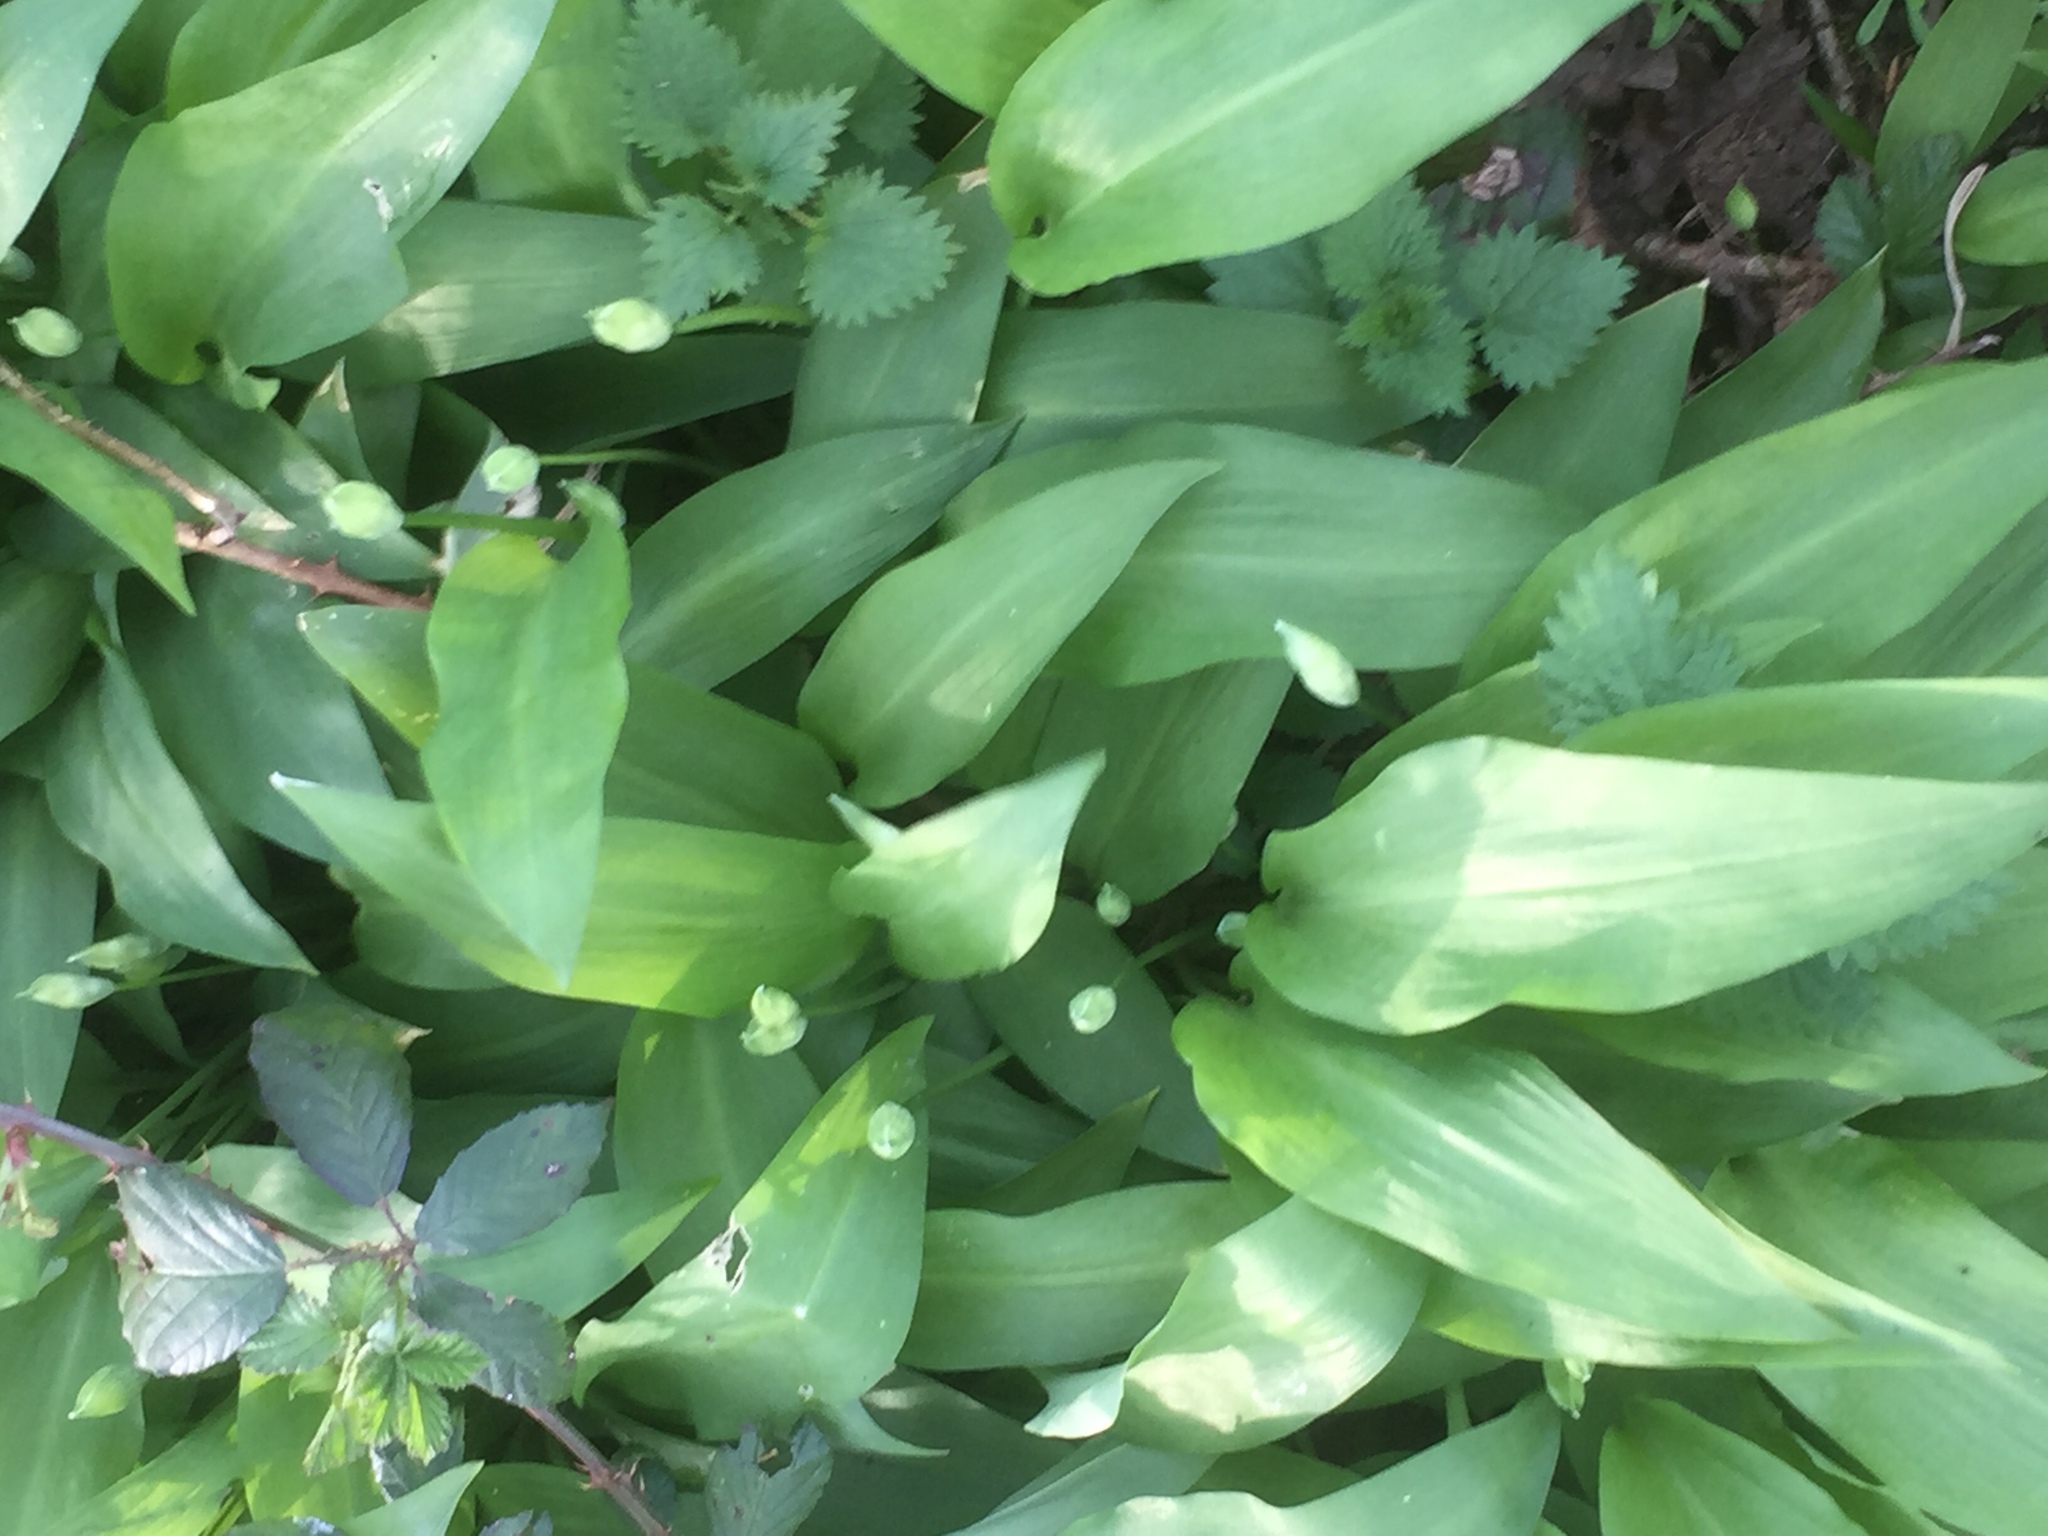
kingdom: Plantae
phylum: Tracheophyta
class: Liliopsida
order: Asparagales
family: Amaryllidaceae
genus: Allium
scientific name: Allium ursinum
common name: Ramsons
